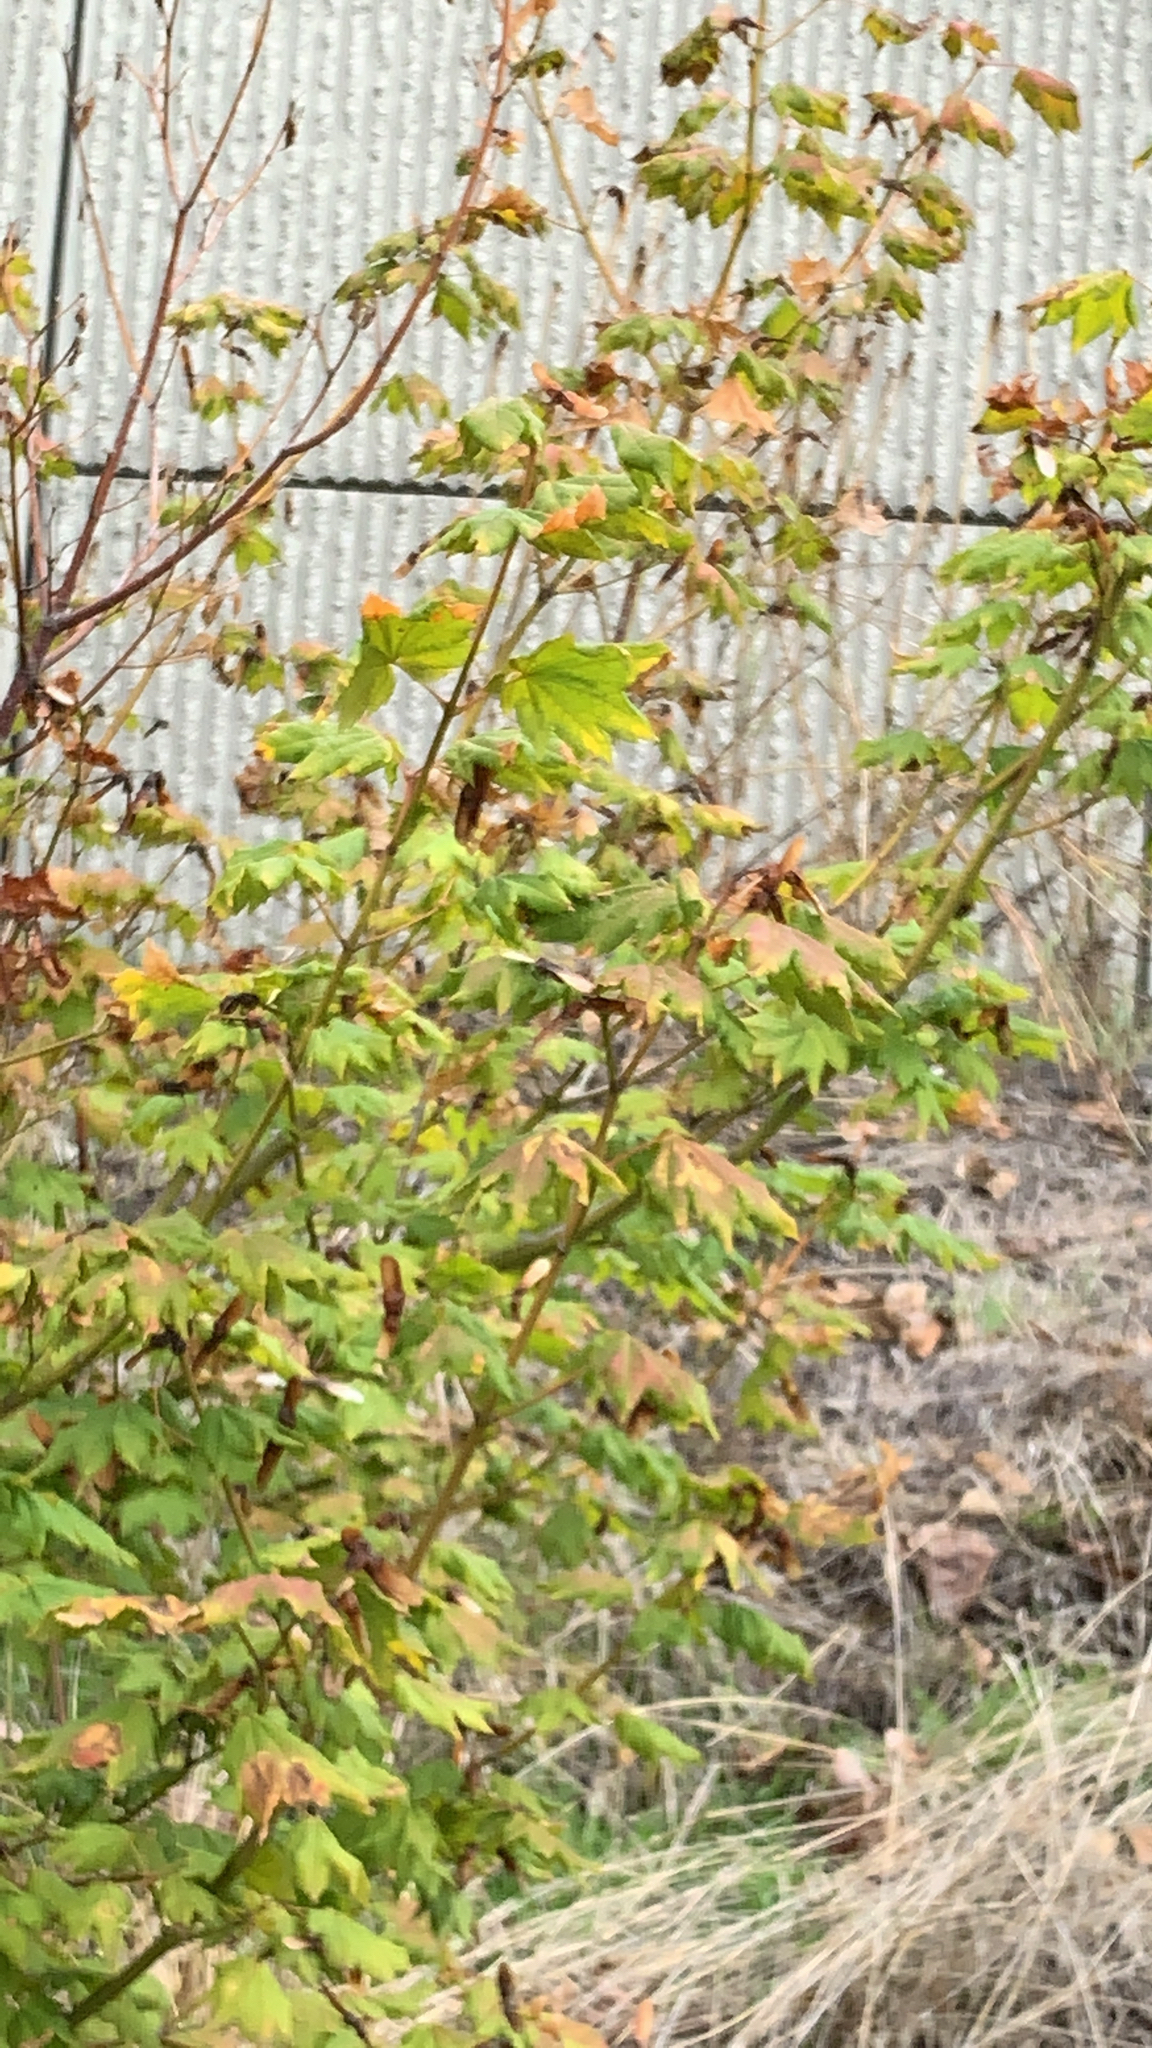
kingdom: Plantae
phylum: Tracheophyta
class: Magnoliopsida
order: Sapindales
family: Sapindaceae
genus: Acer
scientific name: Acer circinatum
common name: Vine maple
